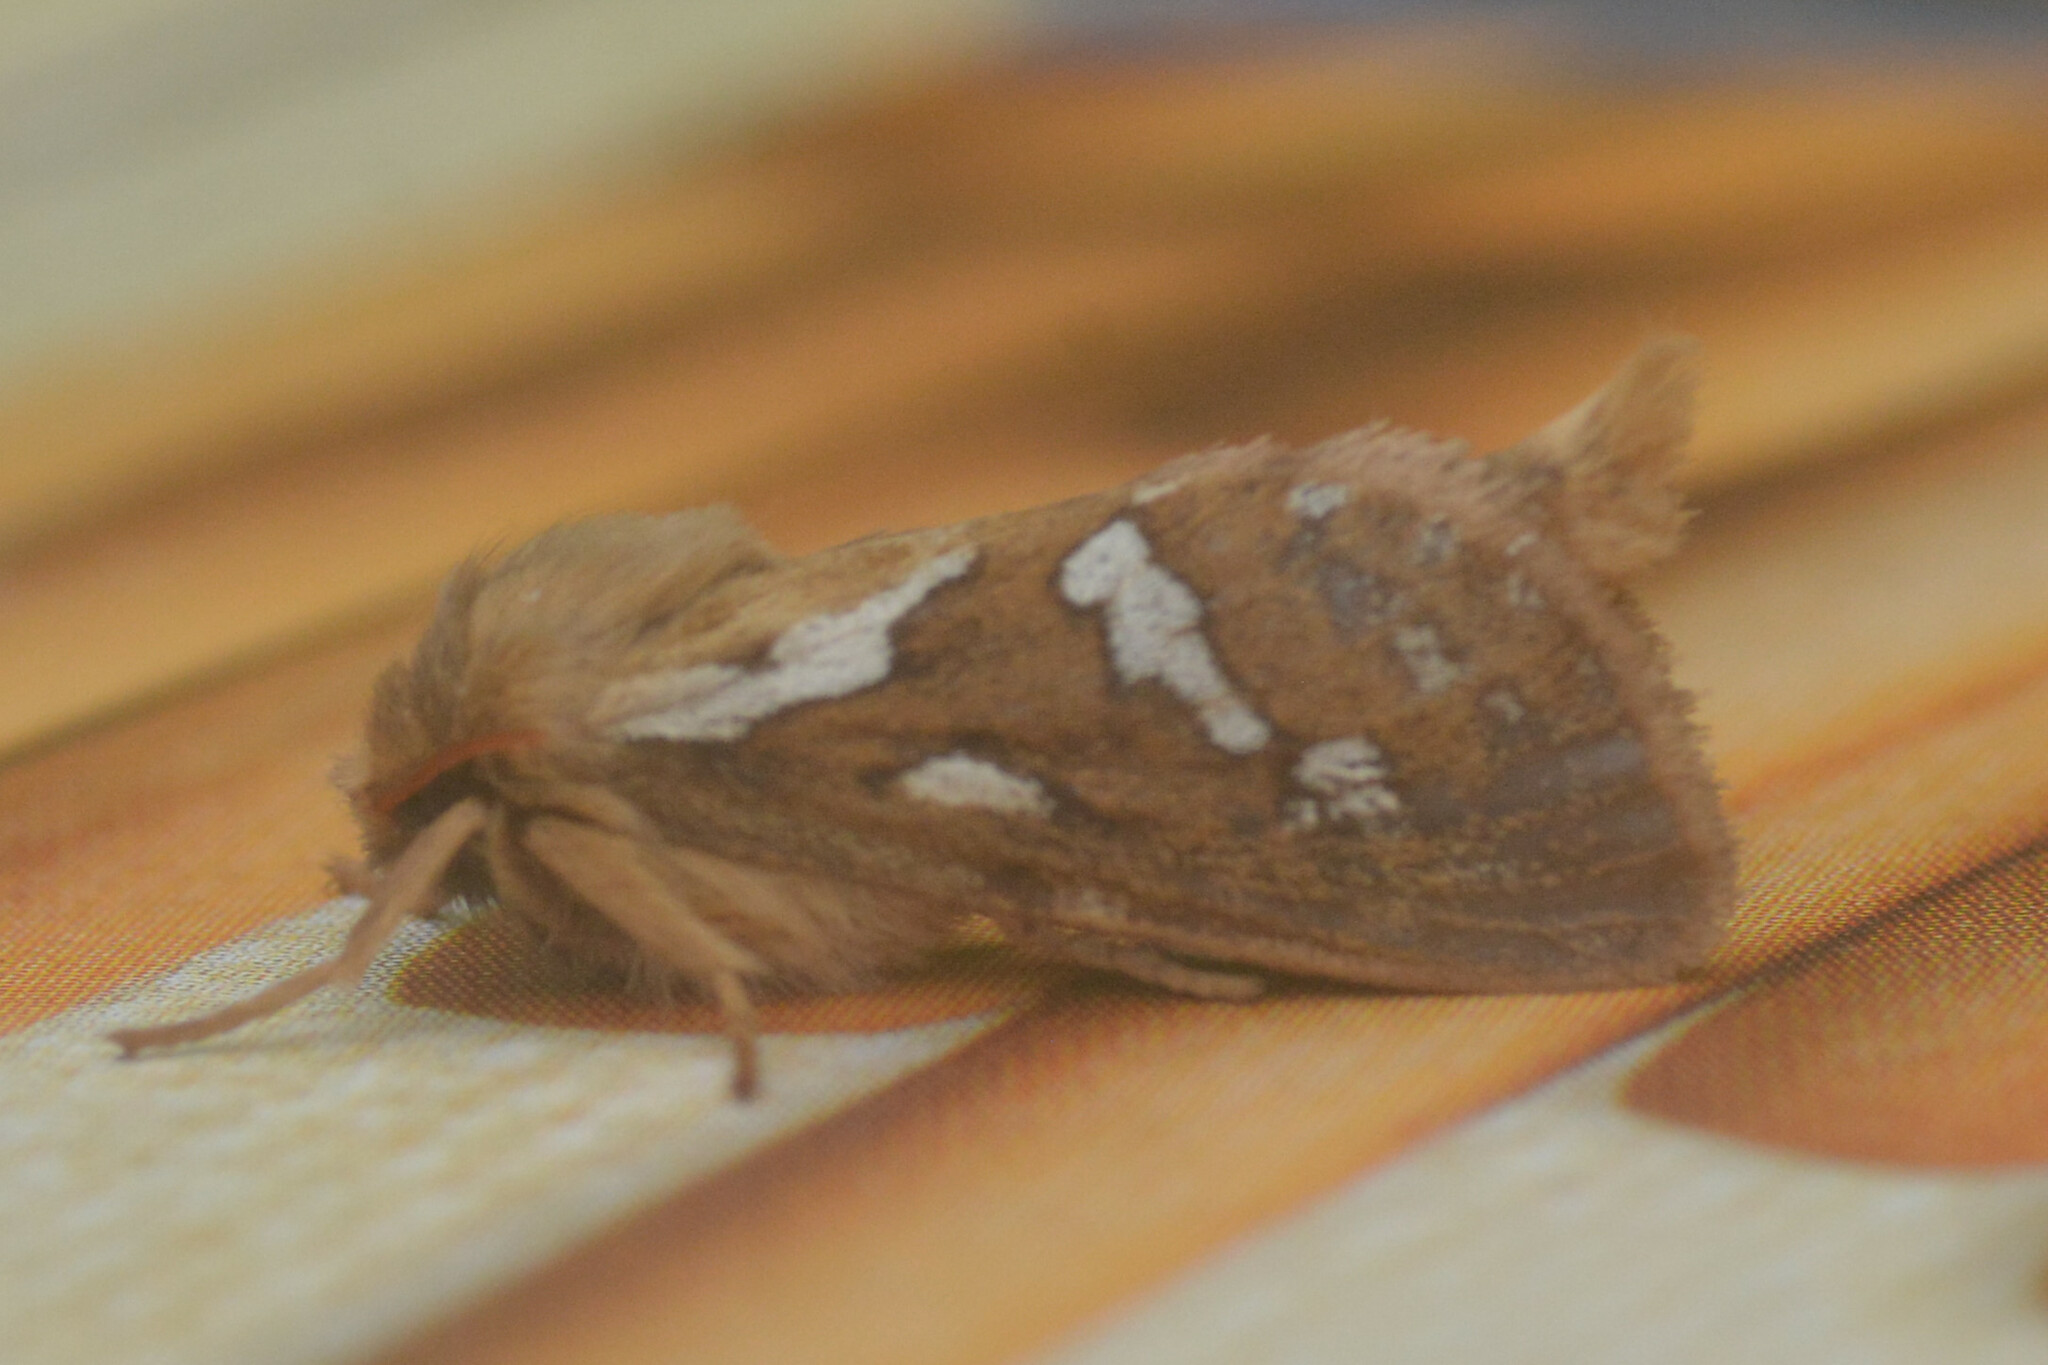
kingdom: Animalia
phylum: Arthropoda
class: Insecta
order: Lepidoptera
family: Hepialidae
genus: Korscheltellus
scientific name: Korscheltellus lupulina
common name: Common swift
